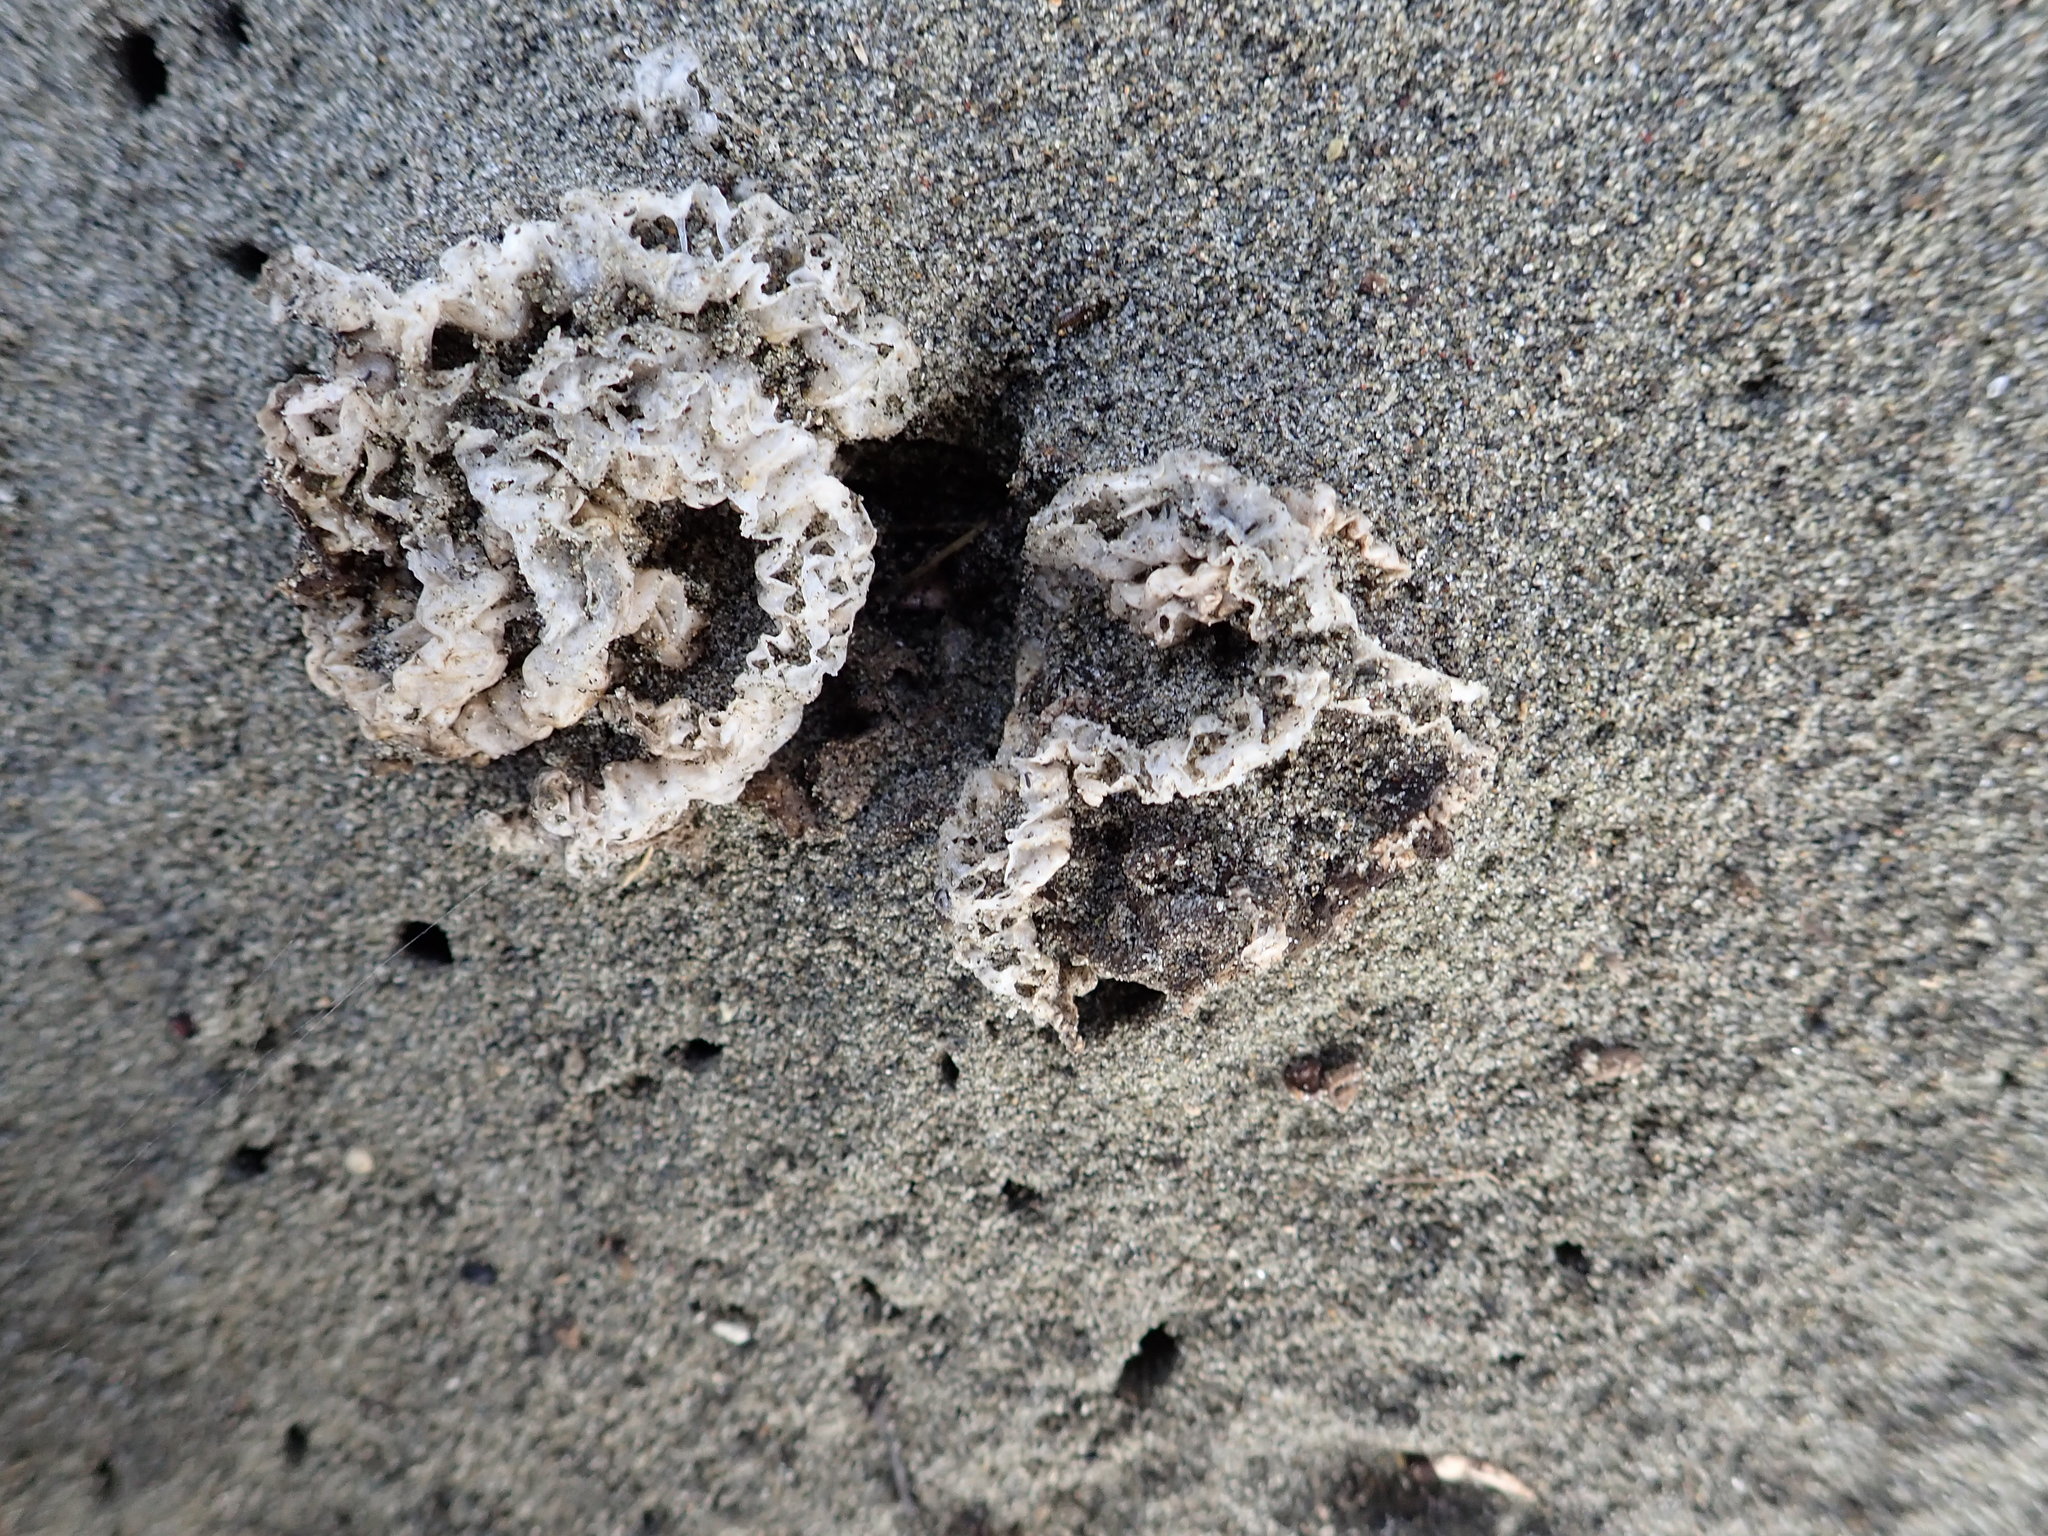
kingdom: Fungi
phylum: Basidiomycota
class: Agaricomycetes
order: Phallales
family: Phallaceae
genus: Ileodictyon
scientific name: Ileodictyon cibarium
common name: Basket fungus
